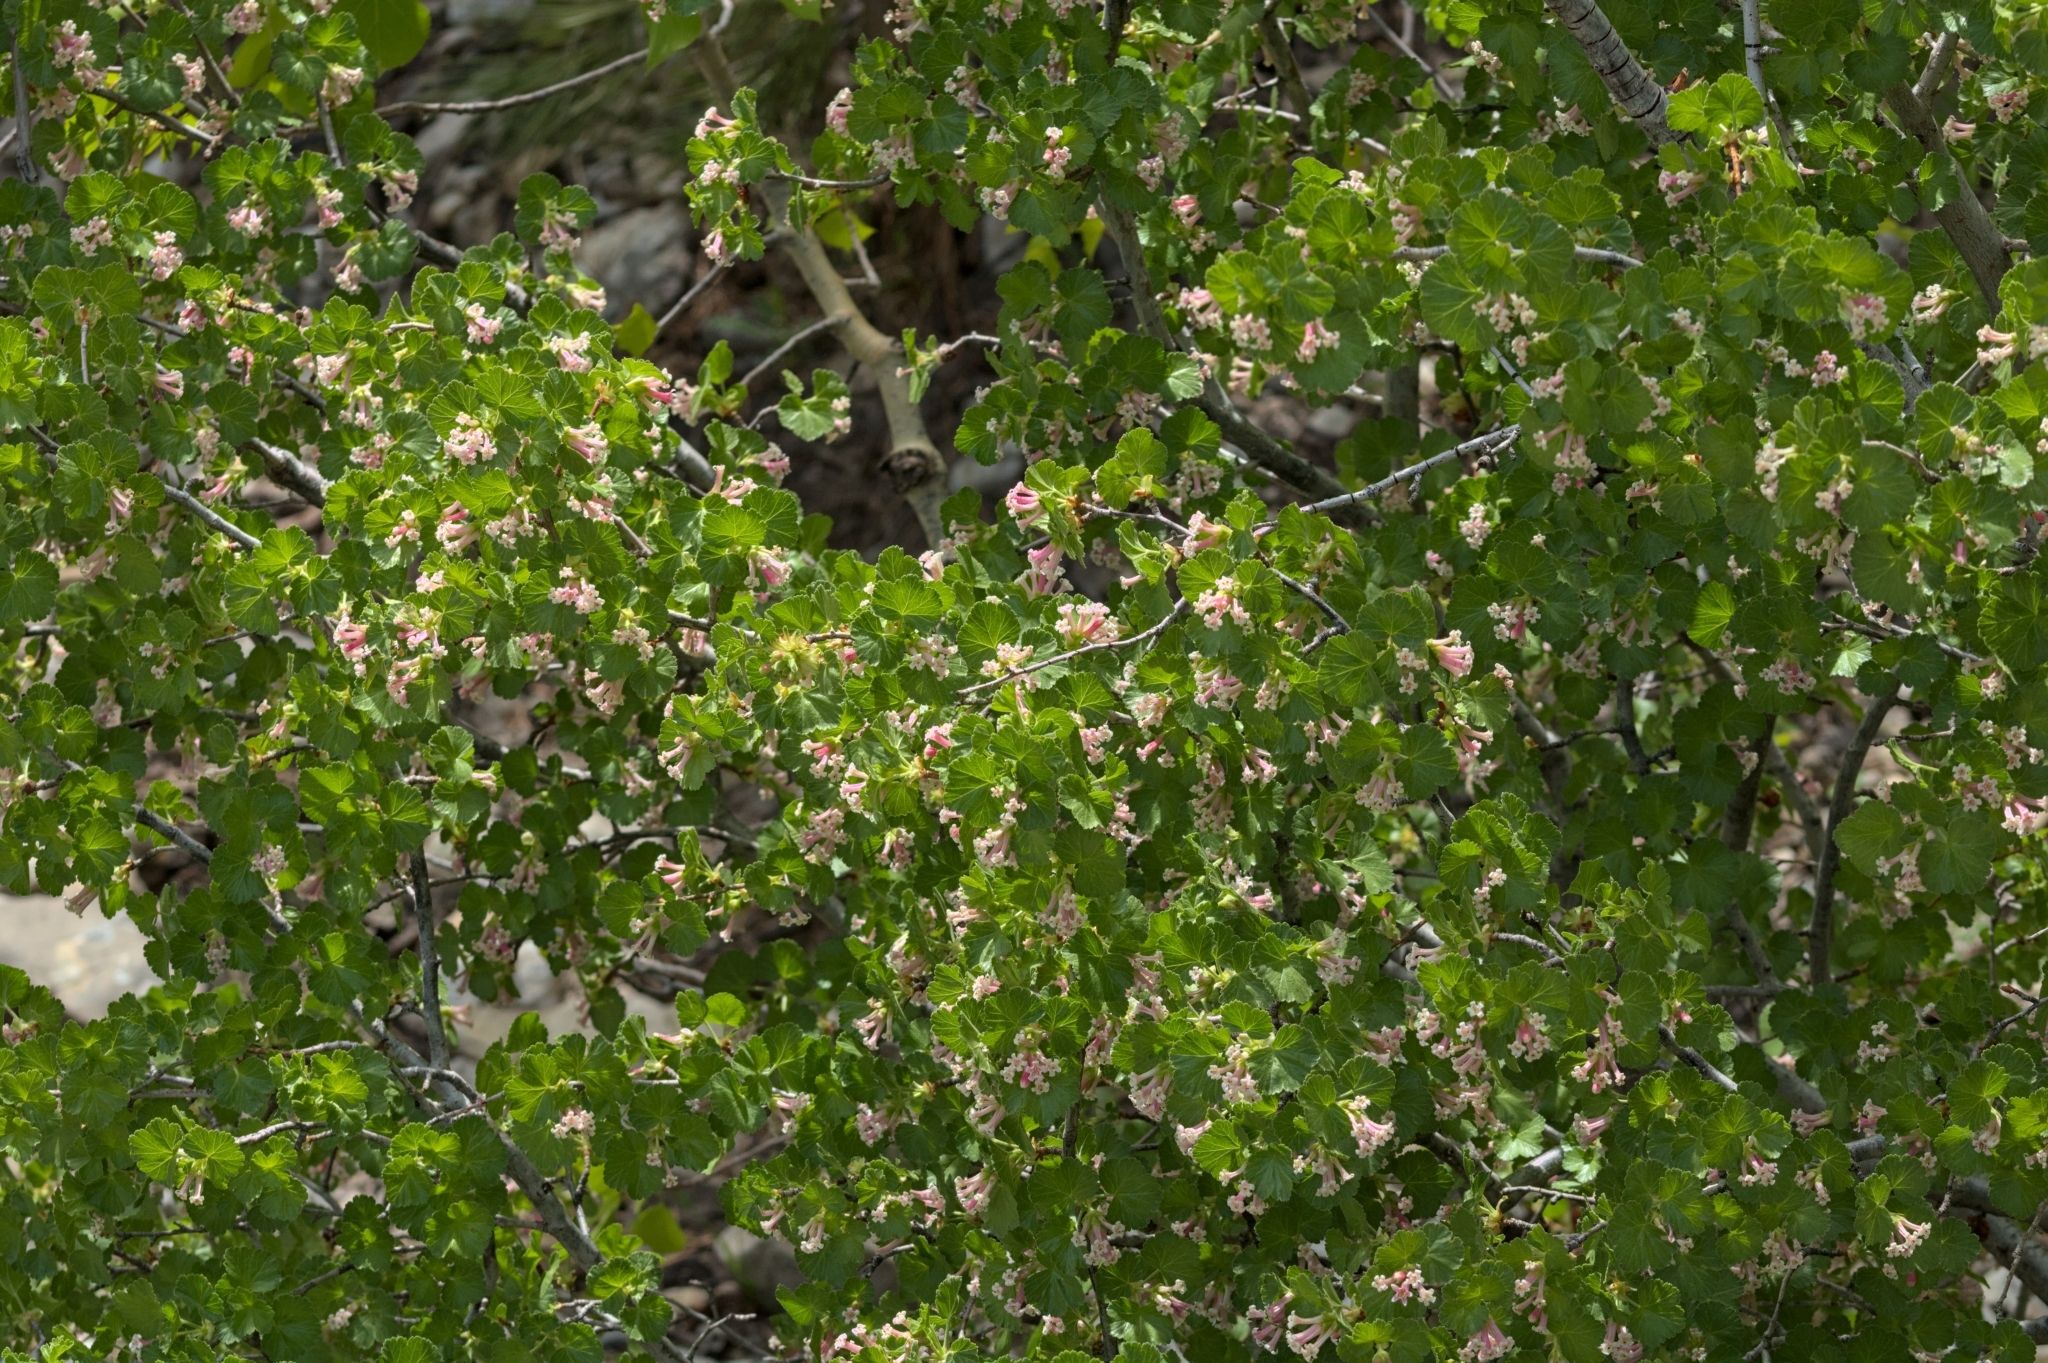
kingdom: Plantae
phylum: Tracheophyta
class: Magnoliopsida
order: Saxifragales
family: Grossulariaceae
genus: Ribes
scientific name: Ribes cereum
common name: Wax currant
